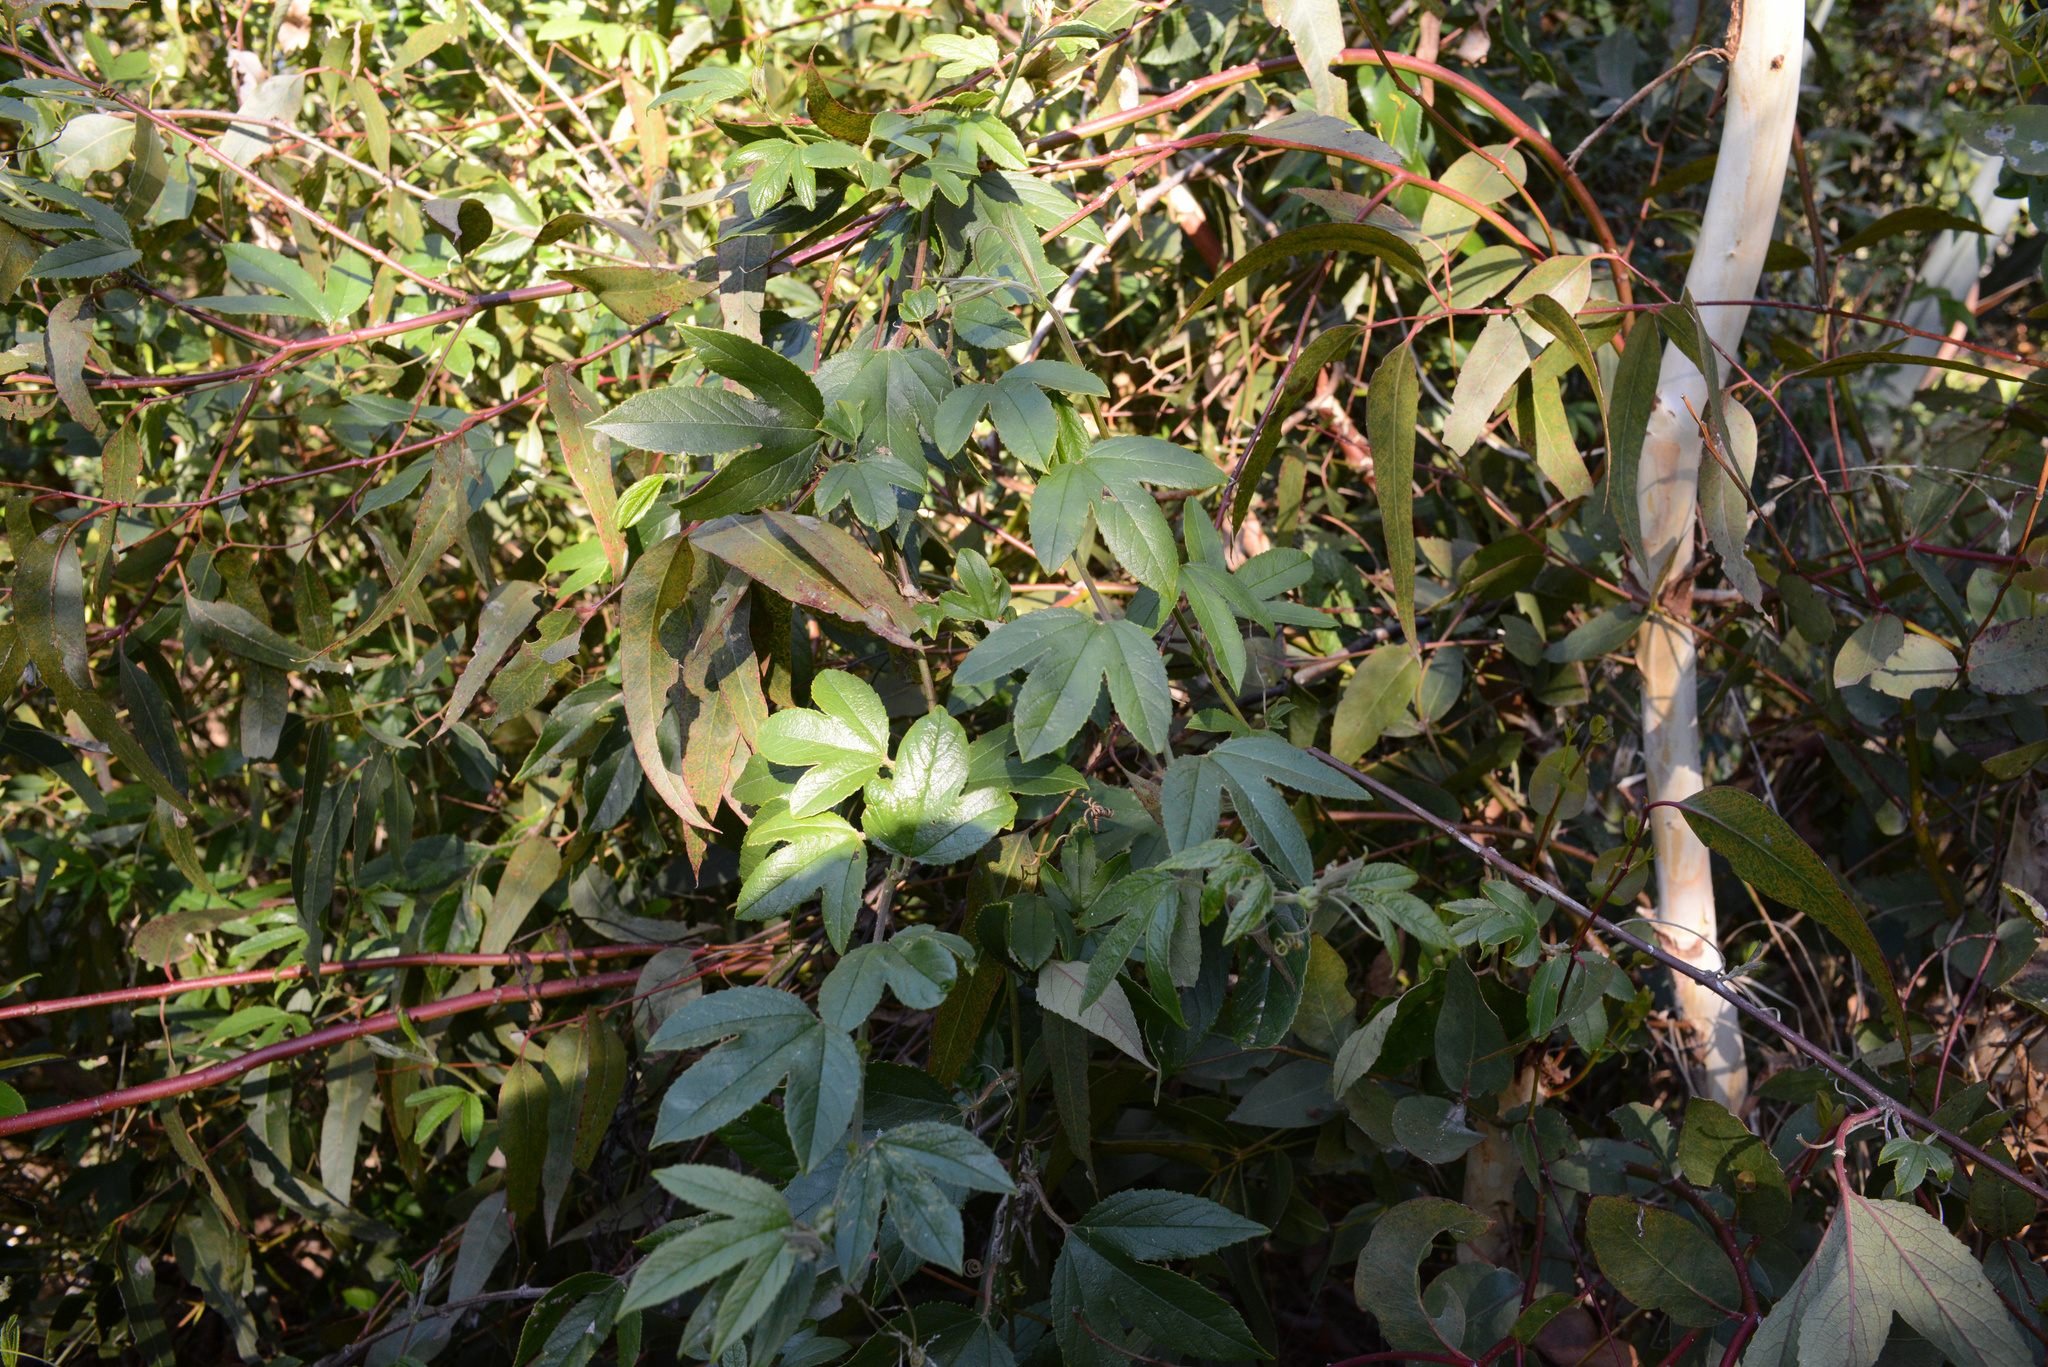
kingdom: Plantae
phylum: Tracheophyta
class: Magnoliopsida
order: Malpighiales
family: Passifloraceae
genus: Passiflora
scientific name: Passiflora tripartita
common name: Banana poka
